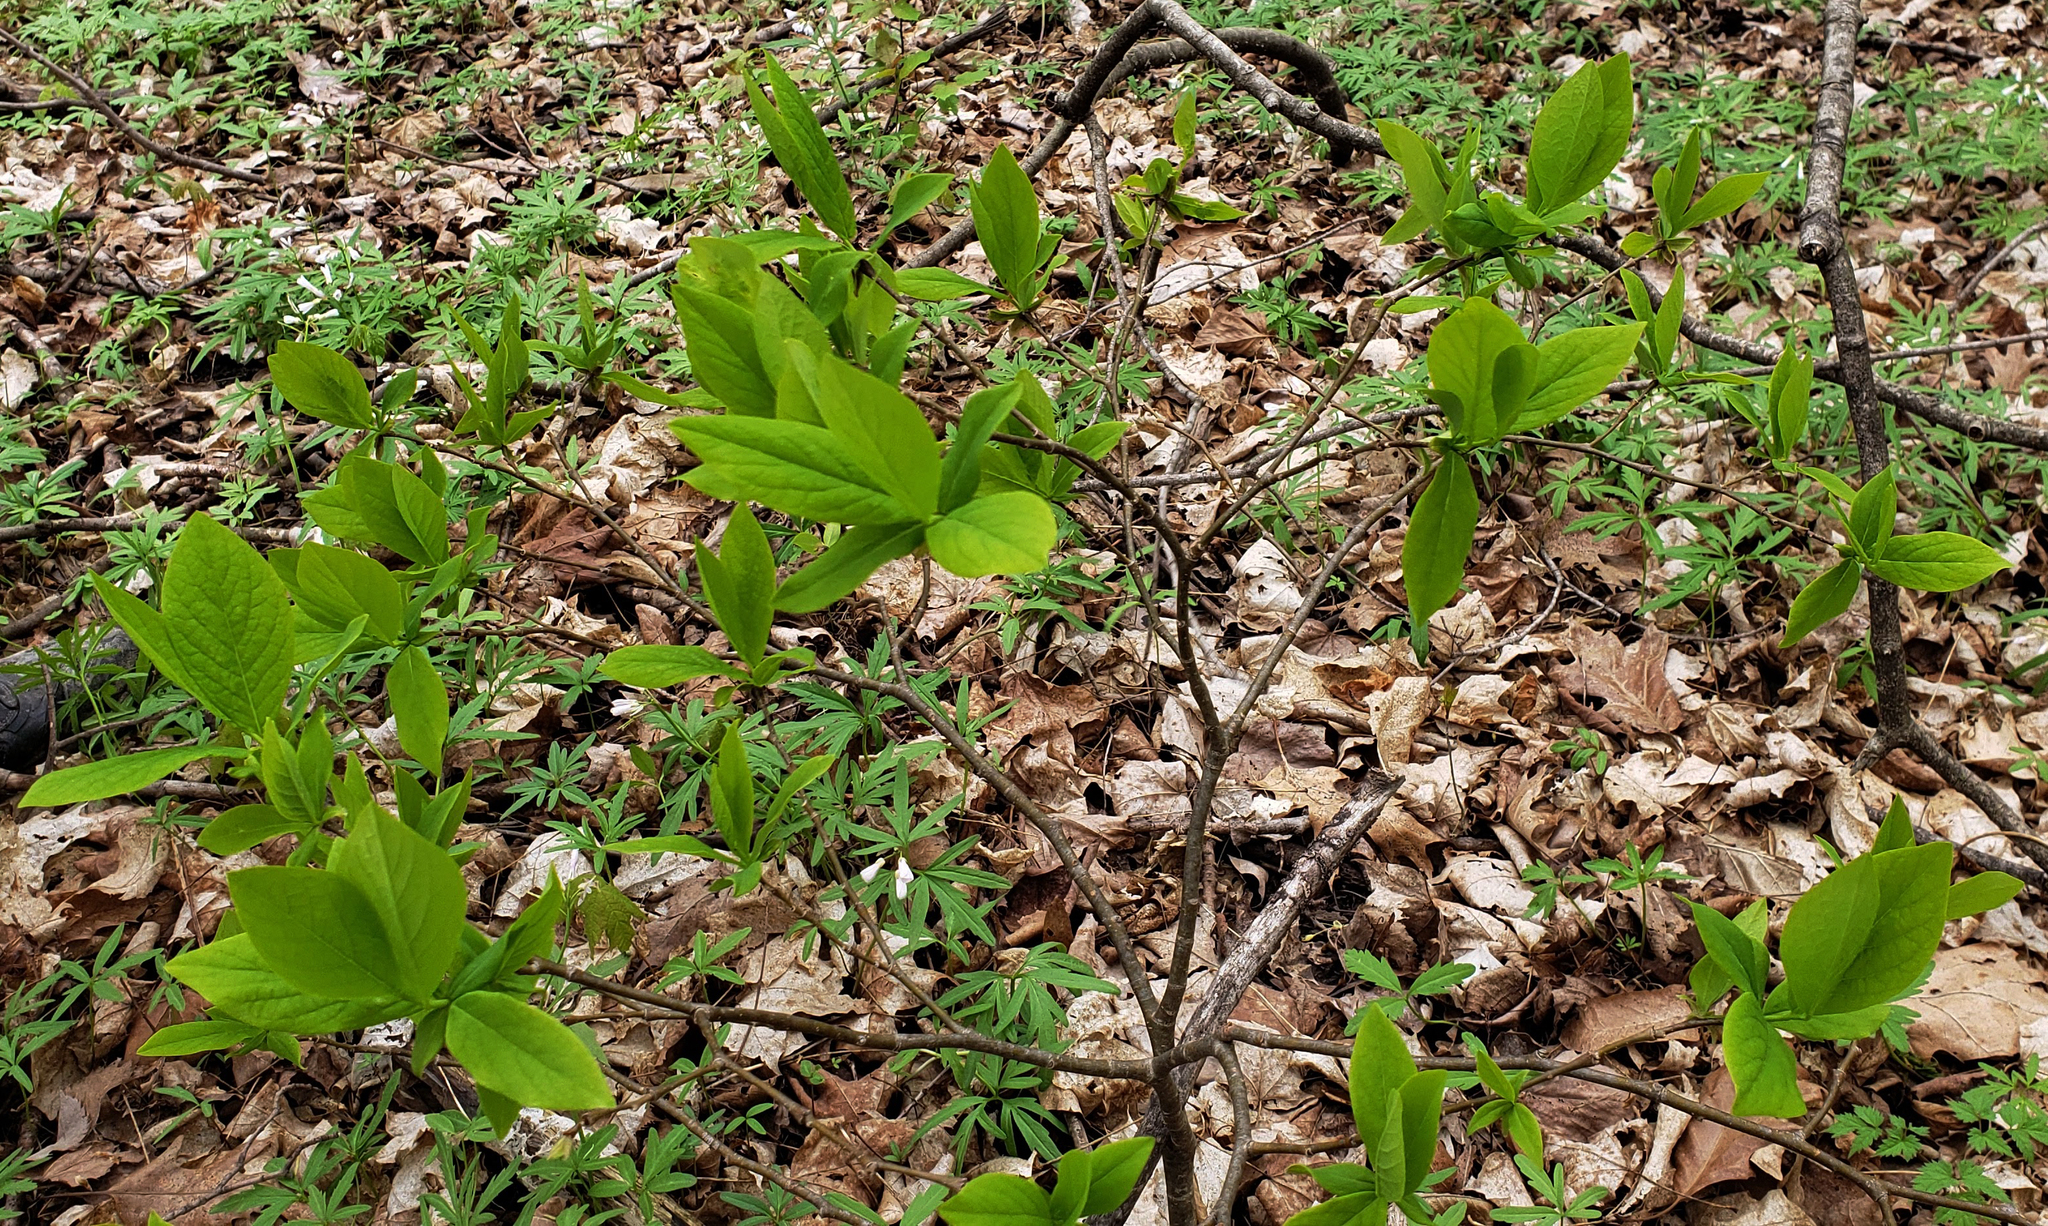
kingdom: Plantae
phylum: Tracheophyta
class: Magnoliopsida
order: Malvales
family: Thymelaeaceae
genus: Dirca
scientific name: Dirca palustris
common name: Leatherwood
